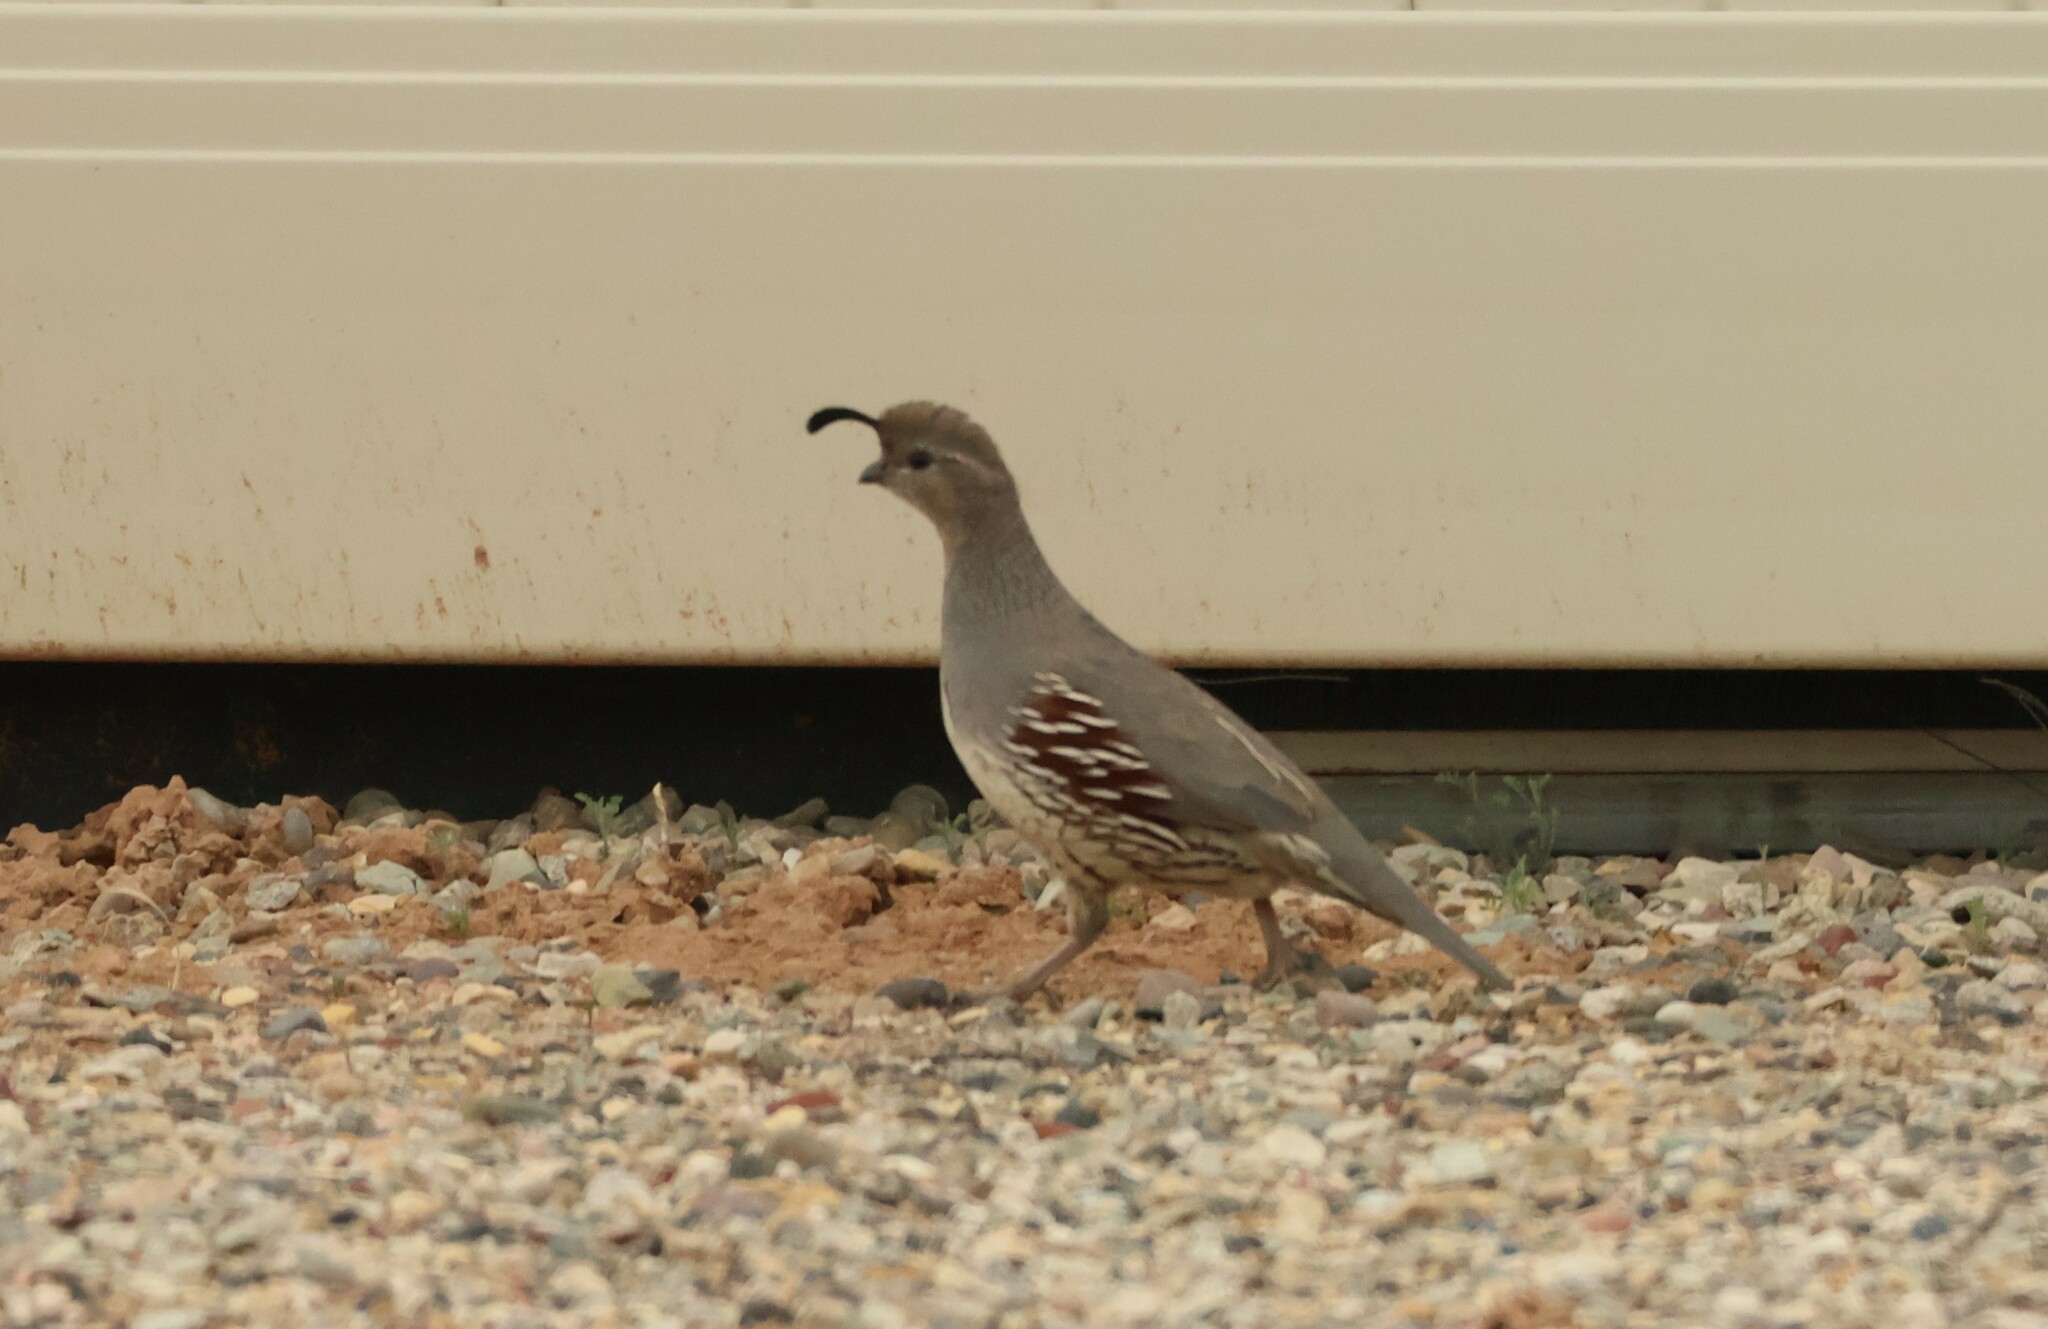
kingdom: Animalia
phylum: Chordata
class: Aves
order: Galliformes
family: Odontophoridae
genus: Callipepla
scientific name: Callipepla gambelii
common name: Gambel's quail
